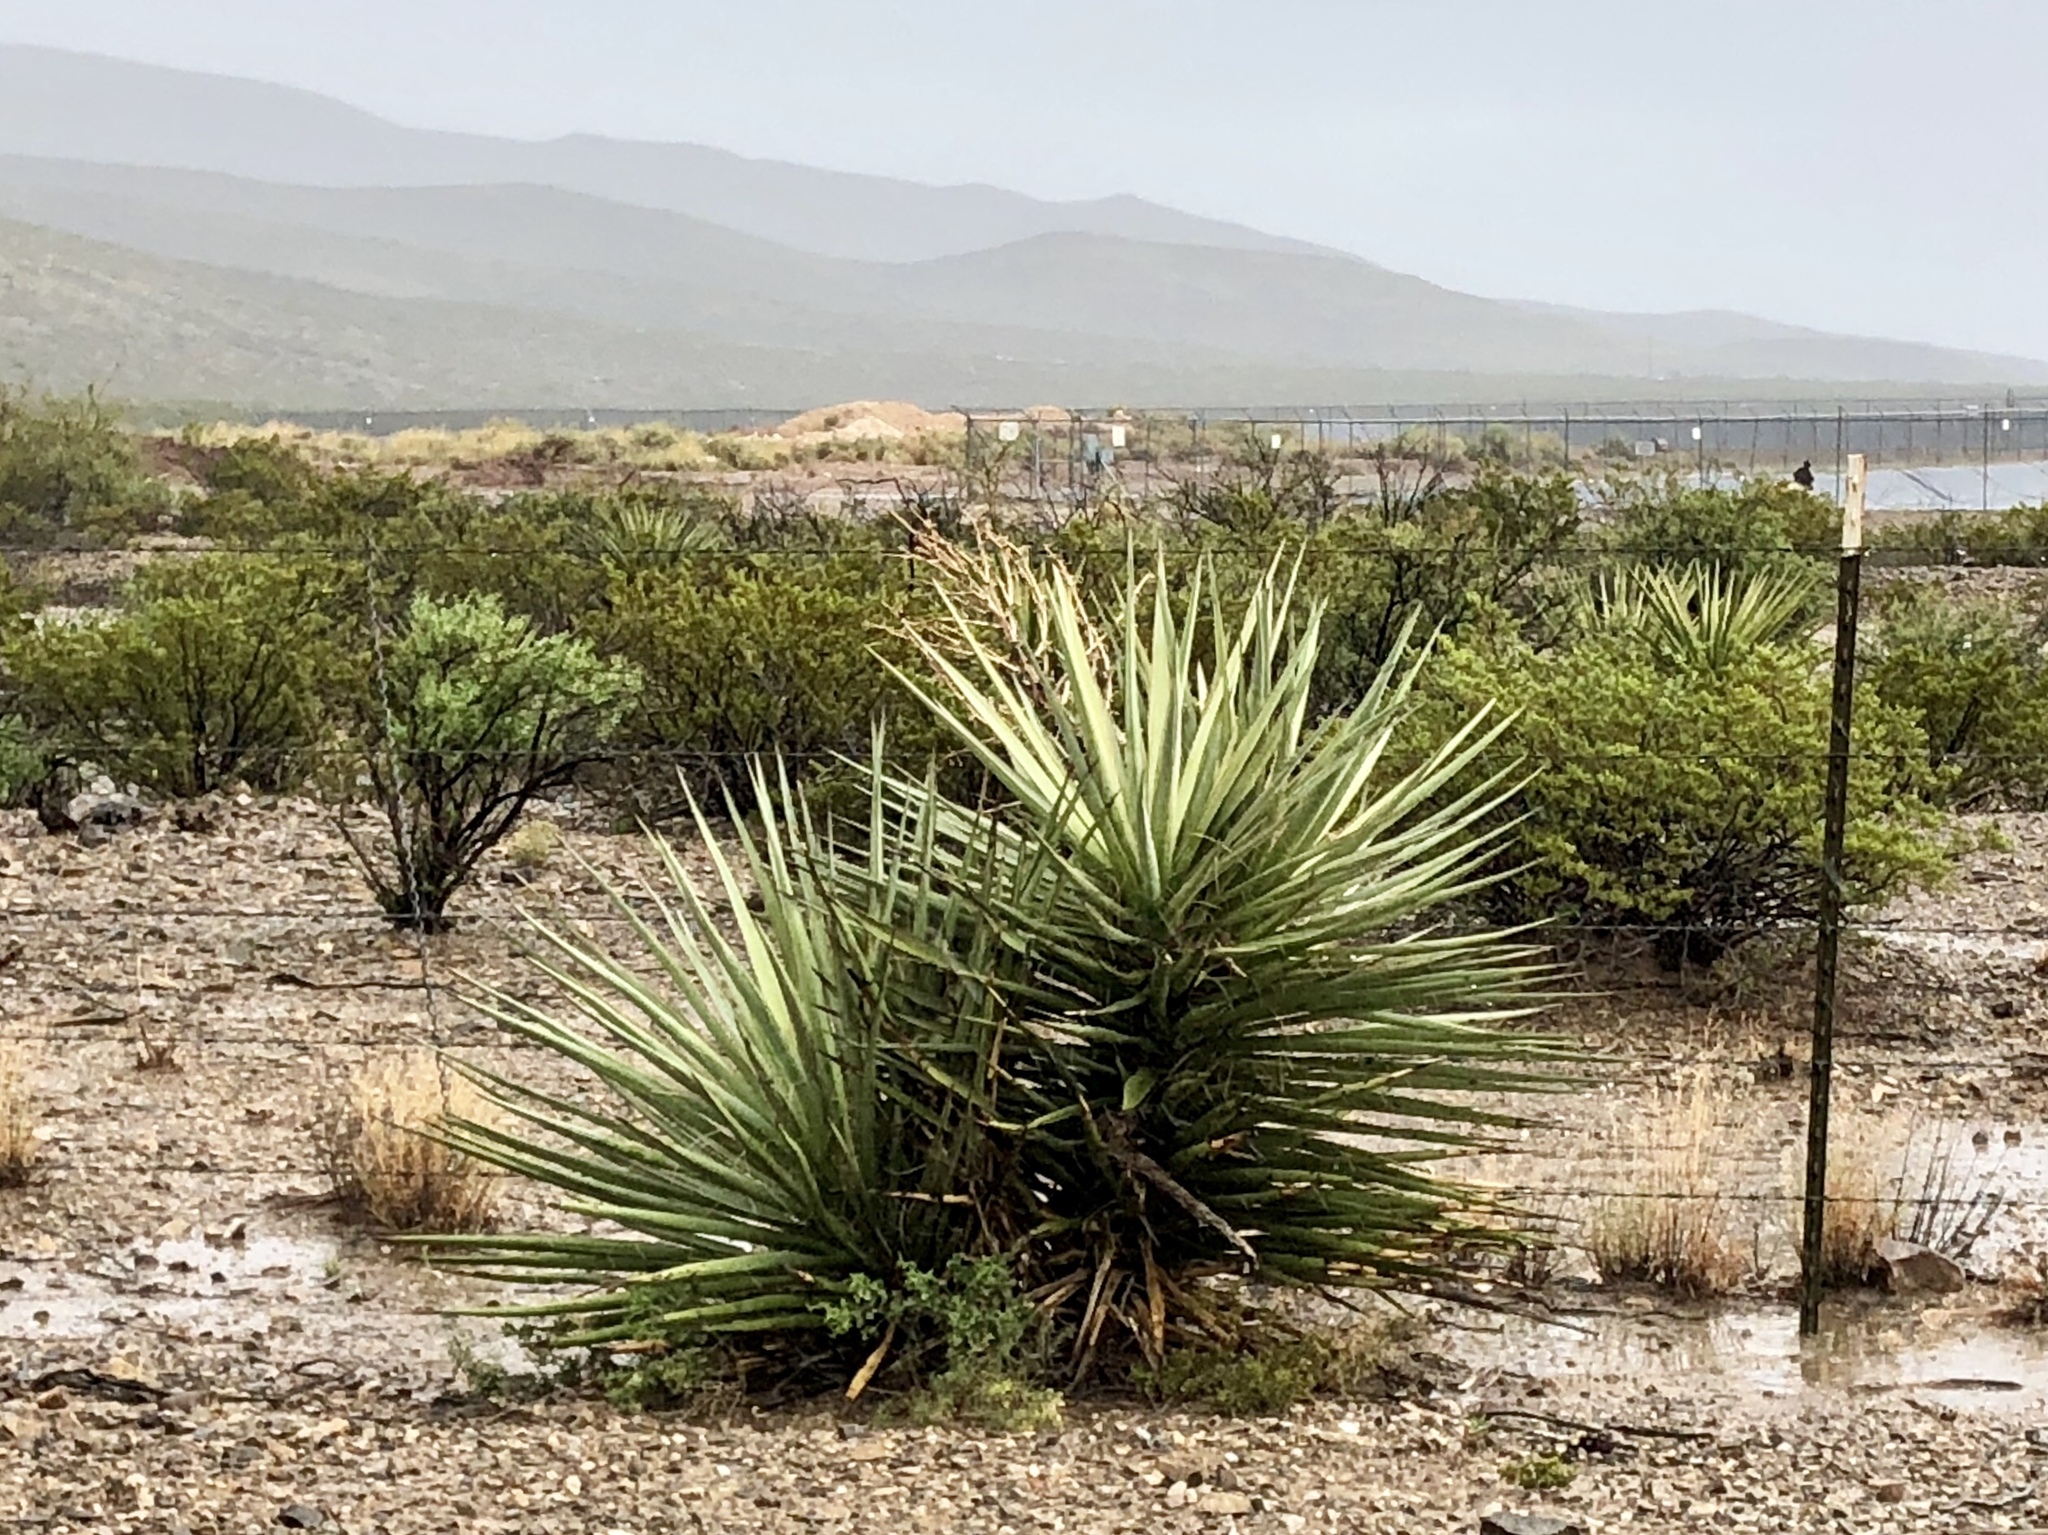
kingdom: Plantae
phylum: Tracheophyta
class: Liliopsida
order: Asparagales
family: Asparagaceae
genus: Yucca
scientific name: Yucca treculiana
